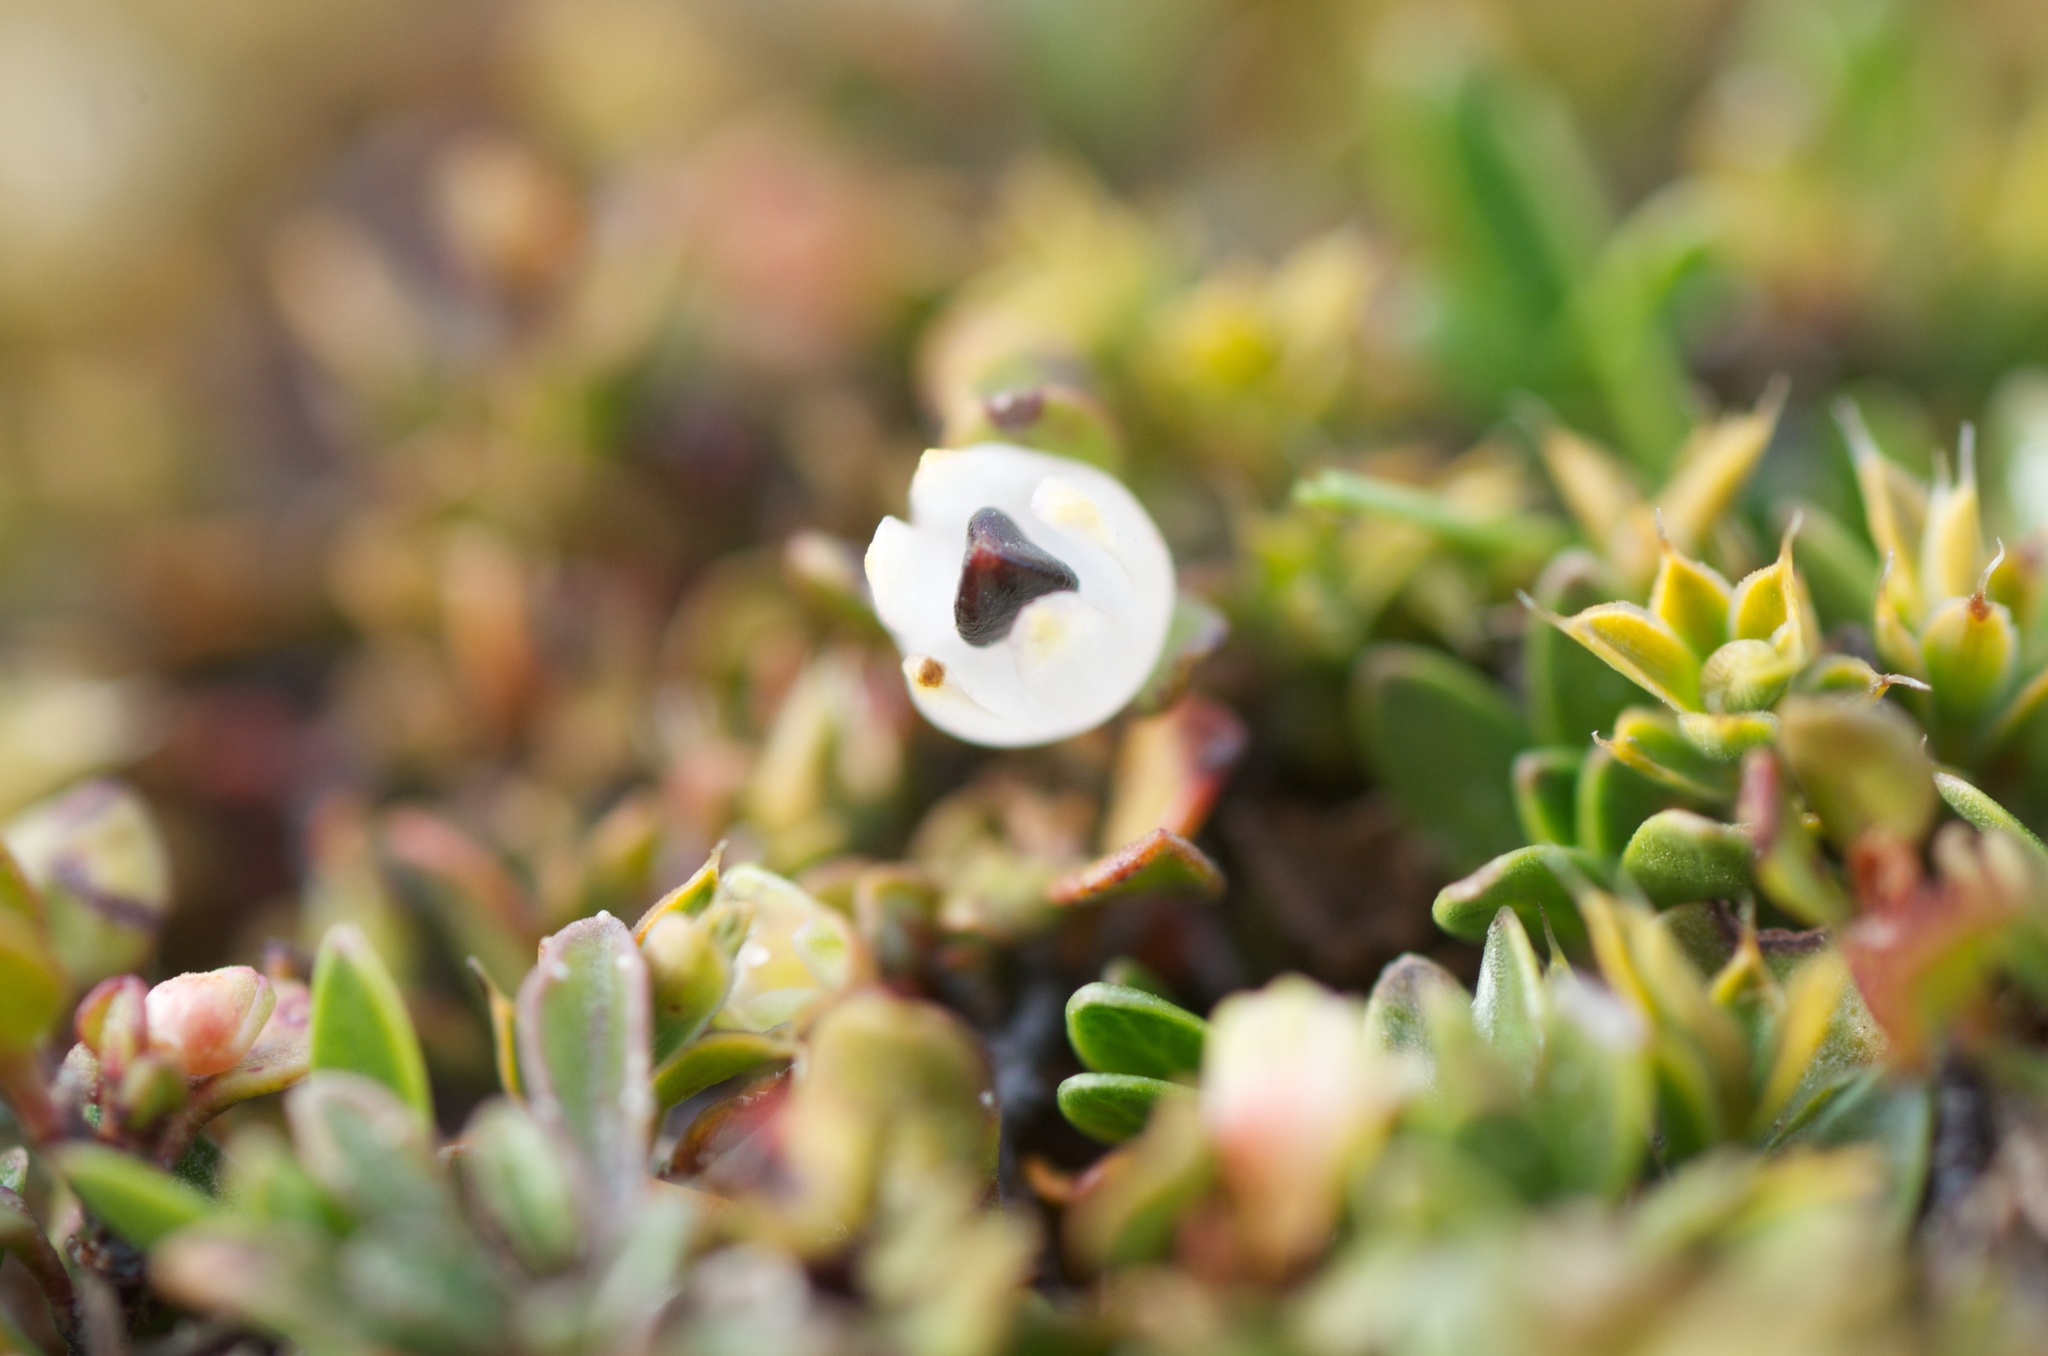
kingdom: Plantae
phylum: Tracheophyta
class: Magnoliopsida
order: Caryophyllales
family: Polygonaceae
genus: Muehlenbeckia
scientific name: Muehlenbeckia axillaris
